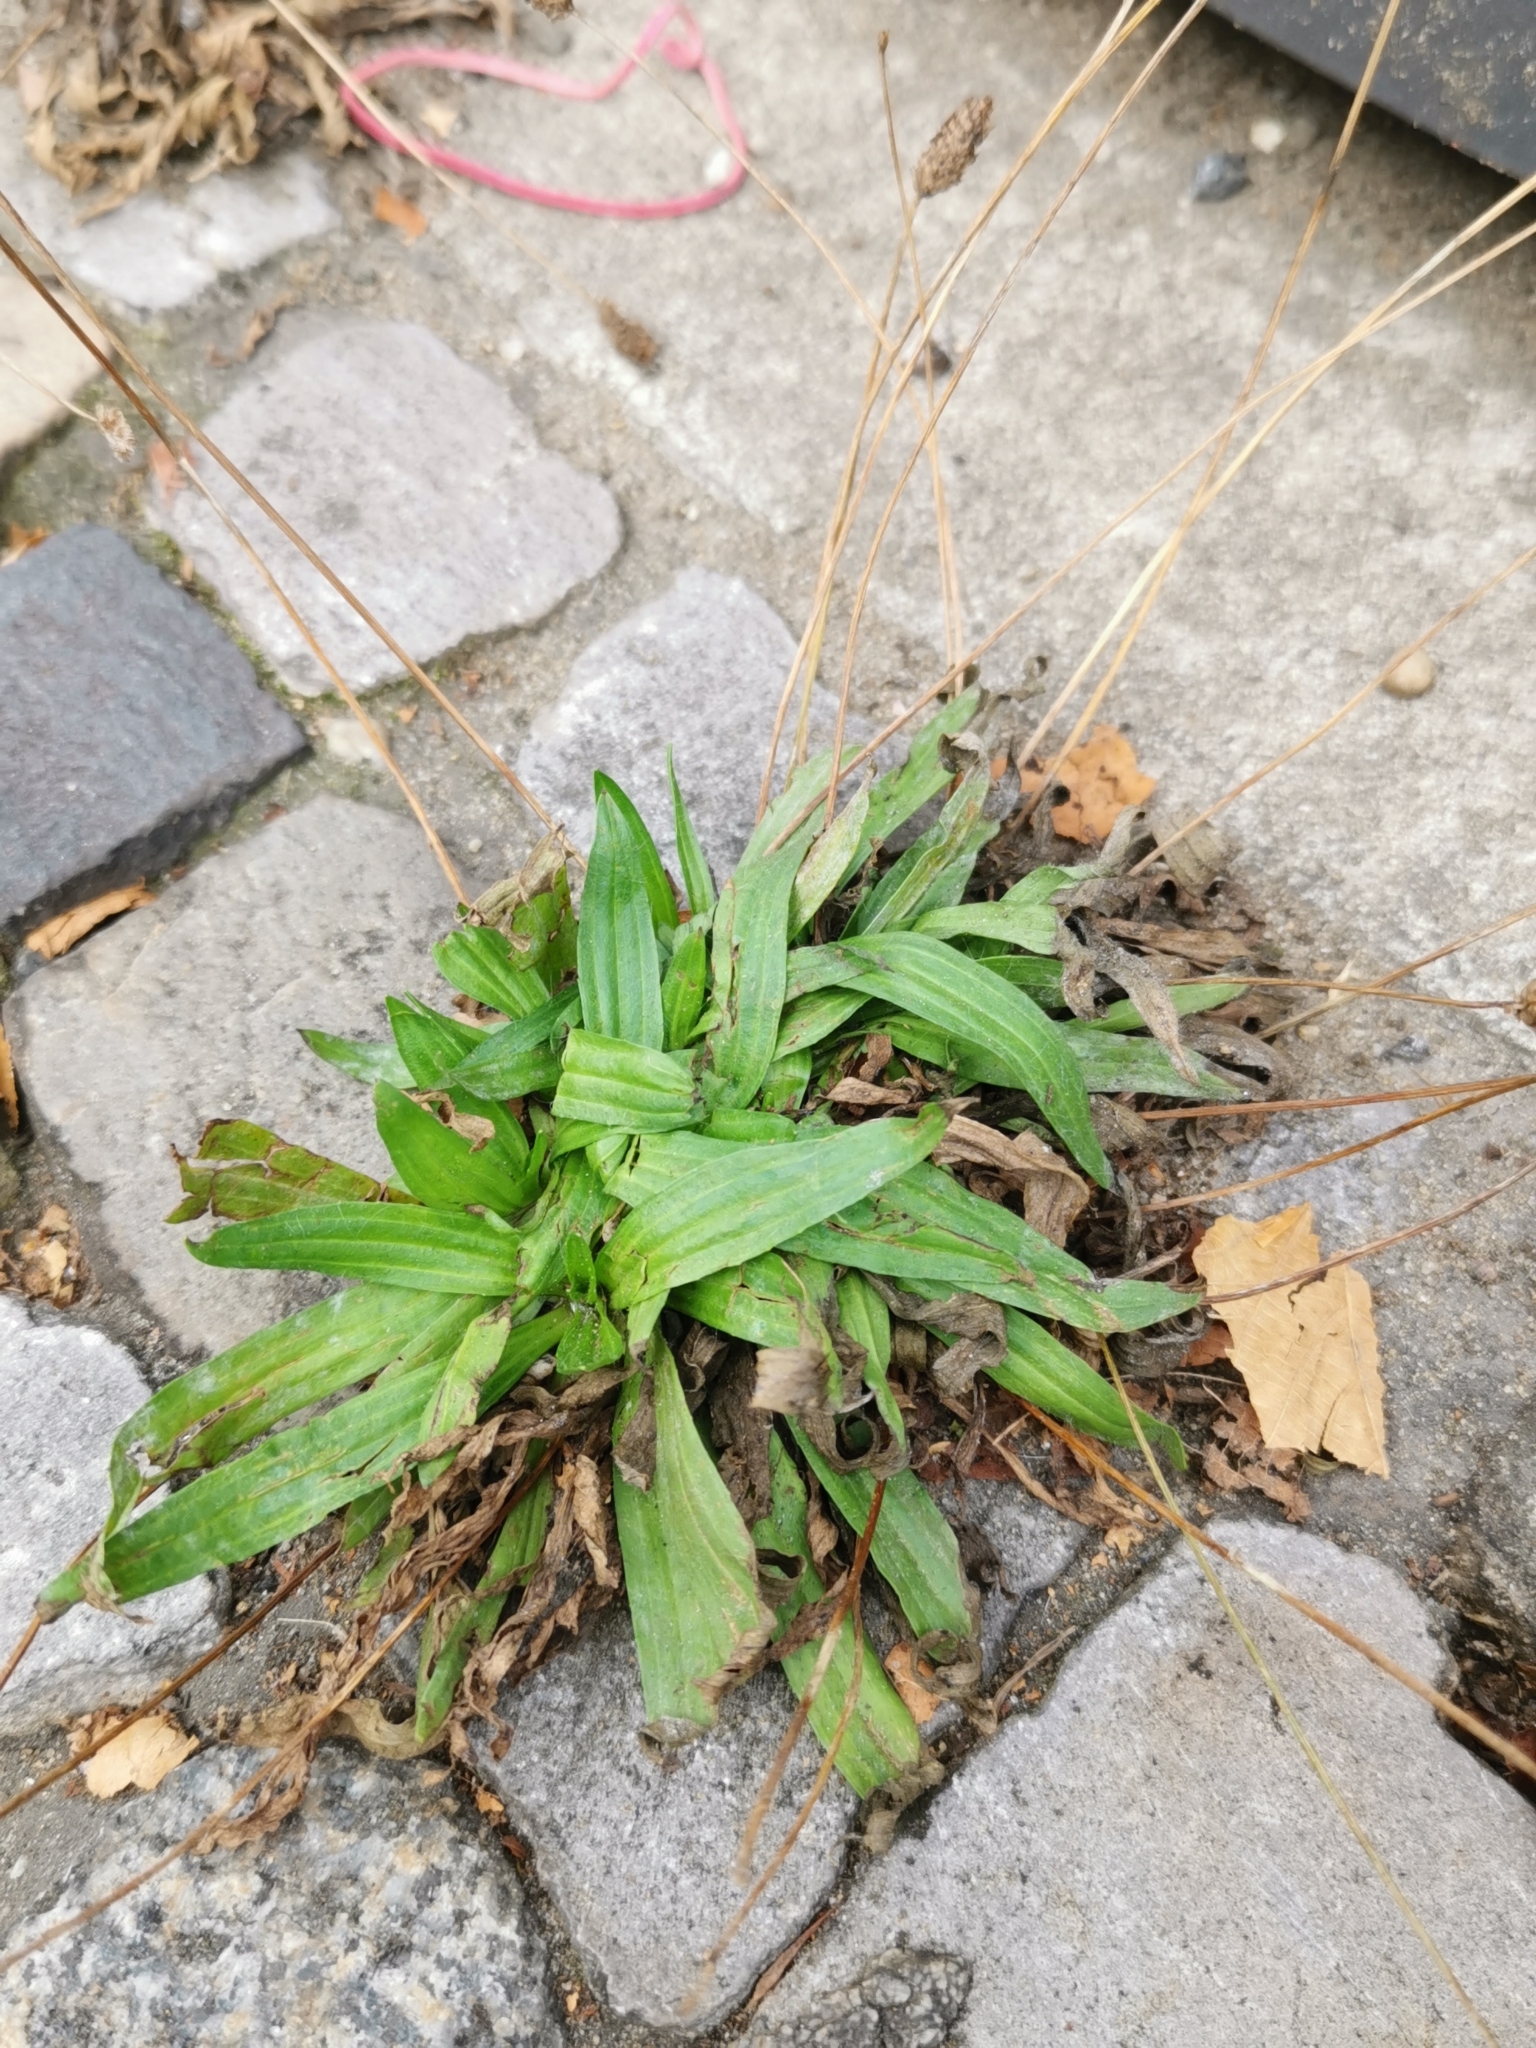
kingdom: Plantae
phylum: Tracheophyta
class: Magnoliopsida
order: Lamiales
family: Plantaginaceae
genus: Plantago
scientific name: Plantago lanceolata
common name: Ribwort plantain
